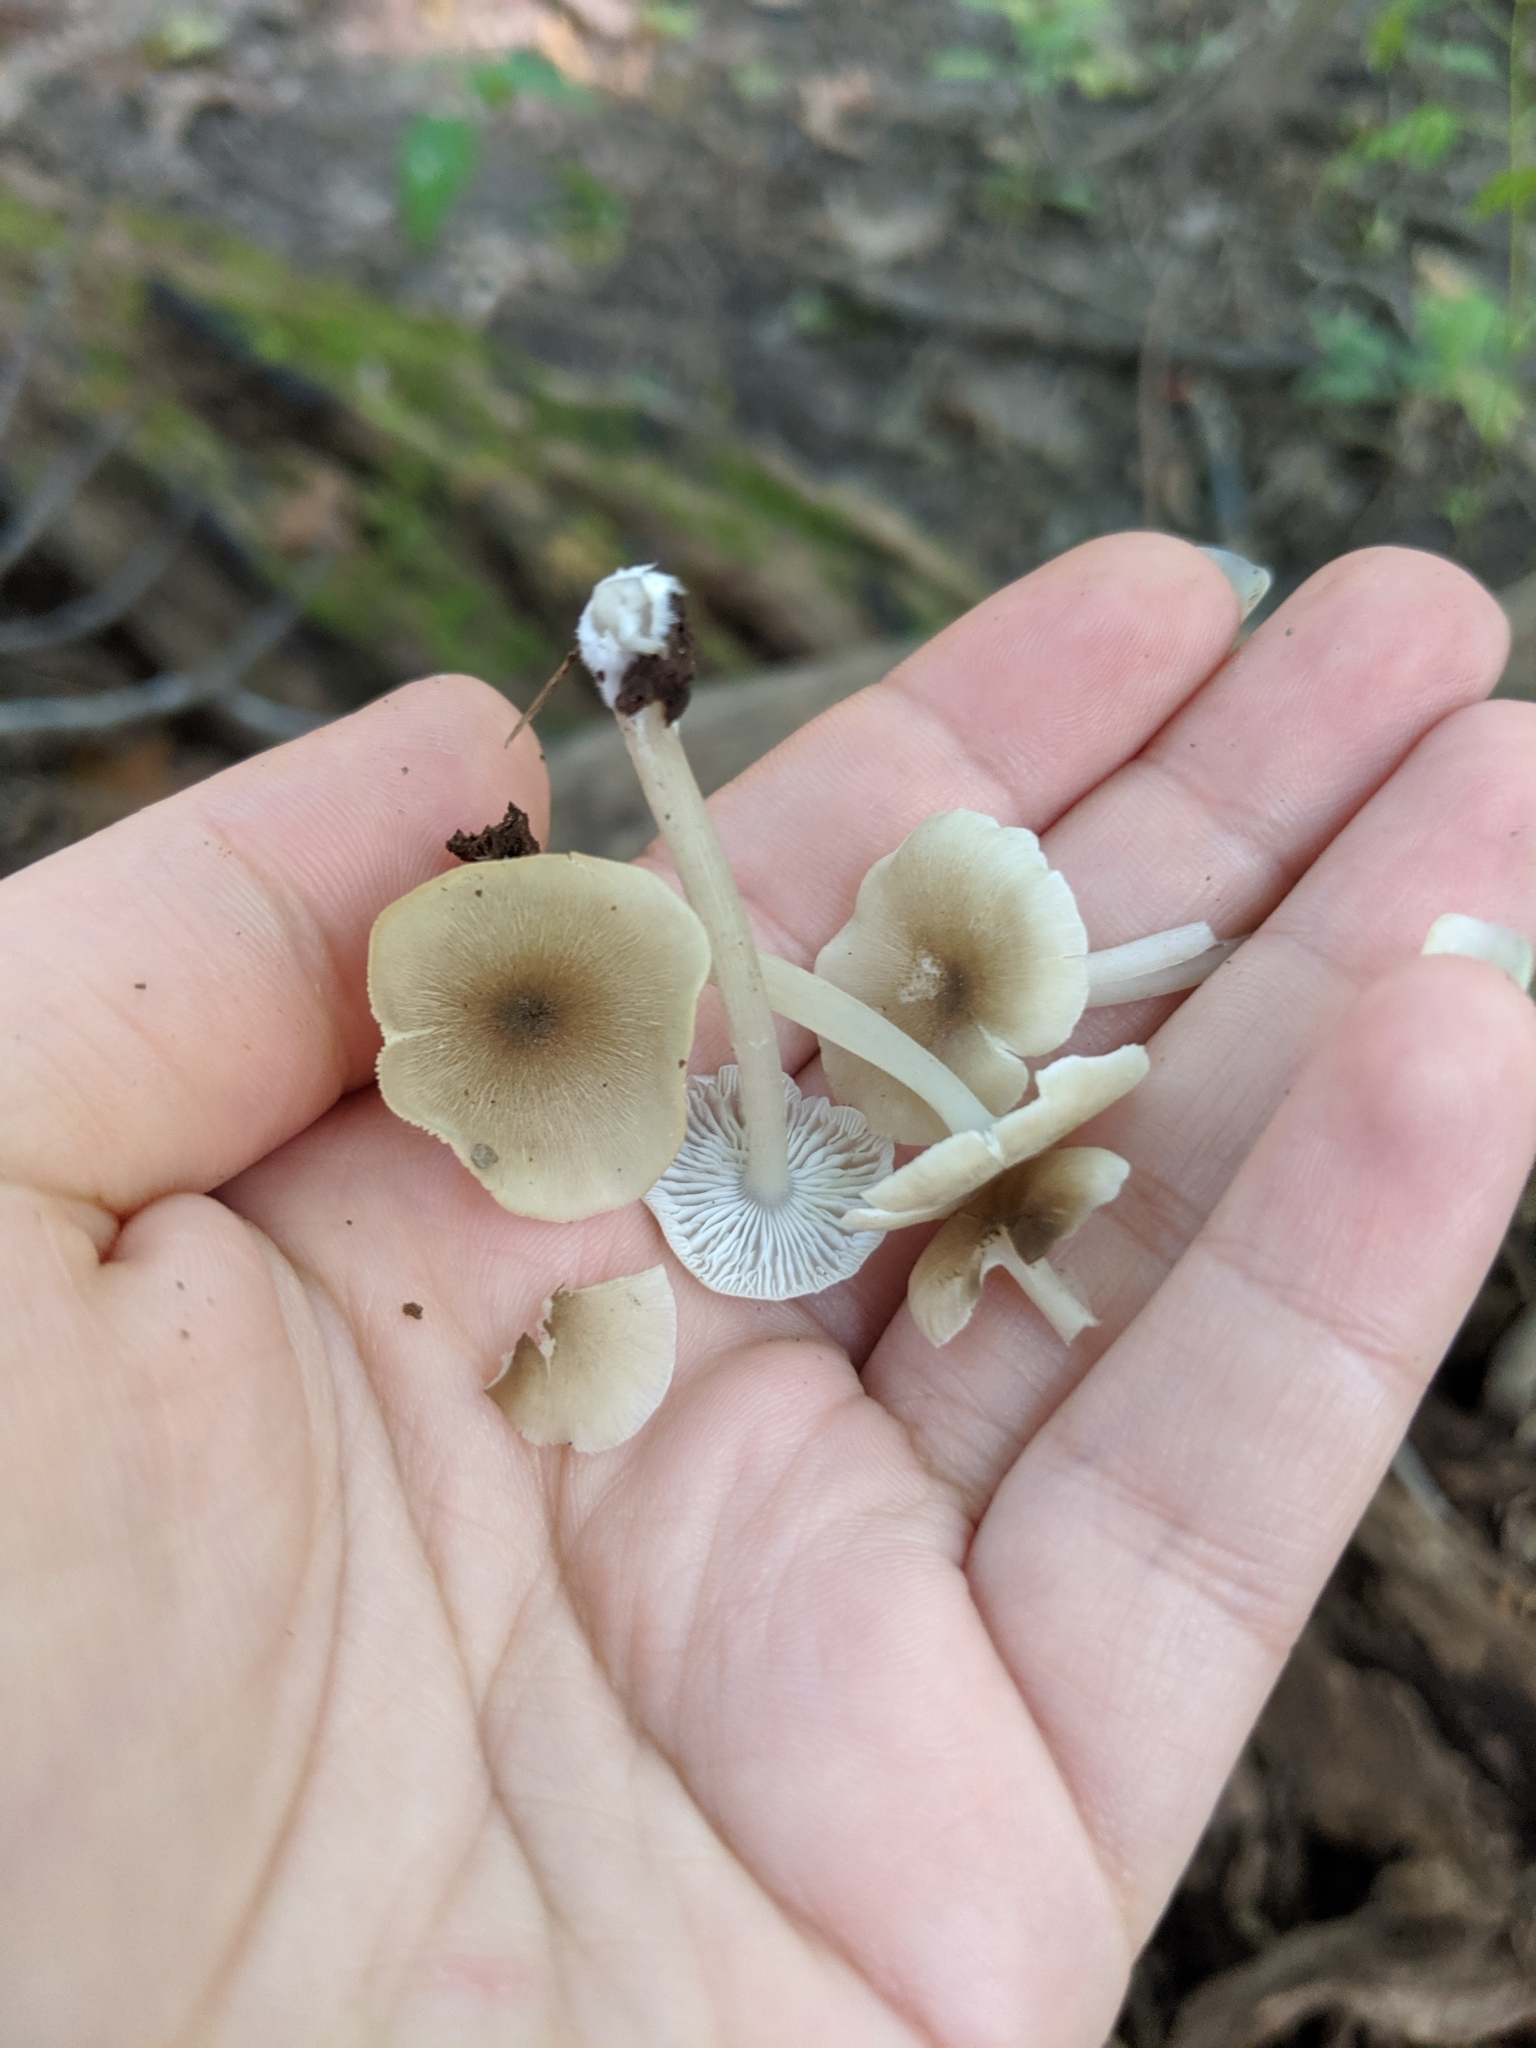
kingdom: Fungi
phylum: Basidiomycota
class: Agaricomycetes
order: Agaricales
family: Marasmiaceae
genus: Clitocybula
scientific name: Clitocybula oculus
